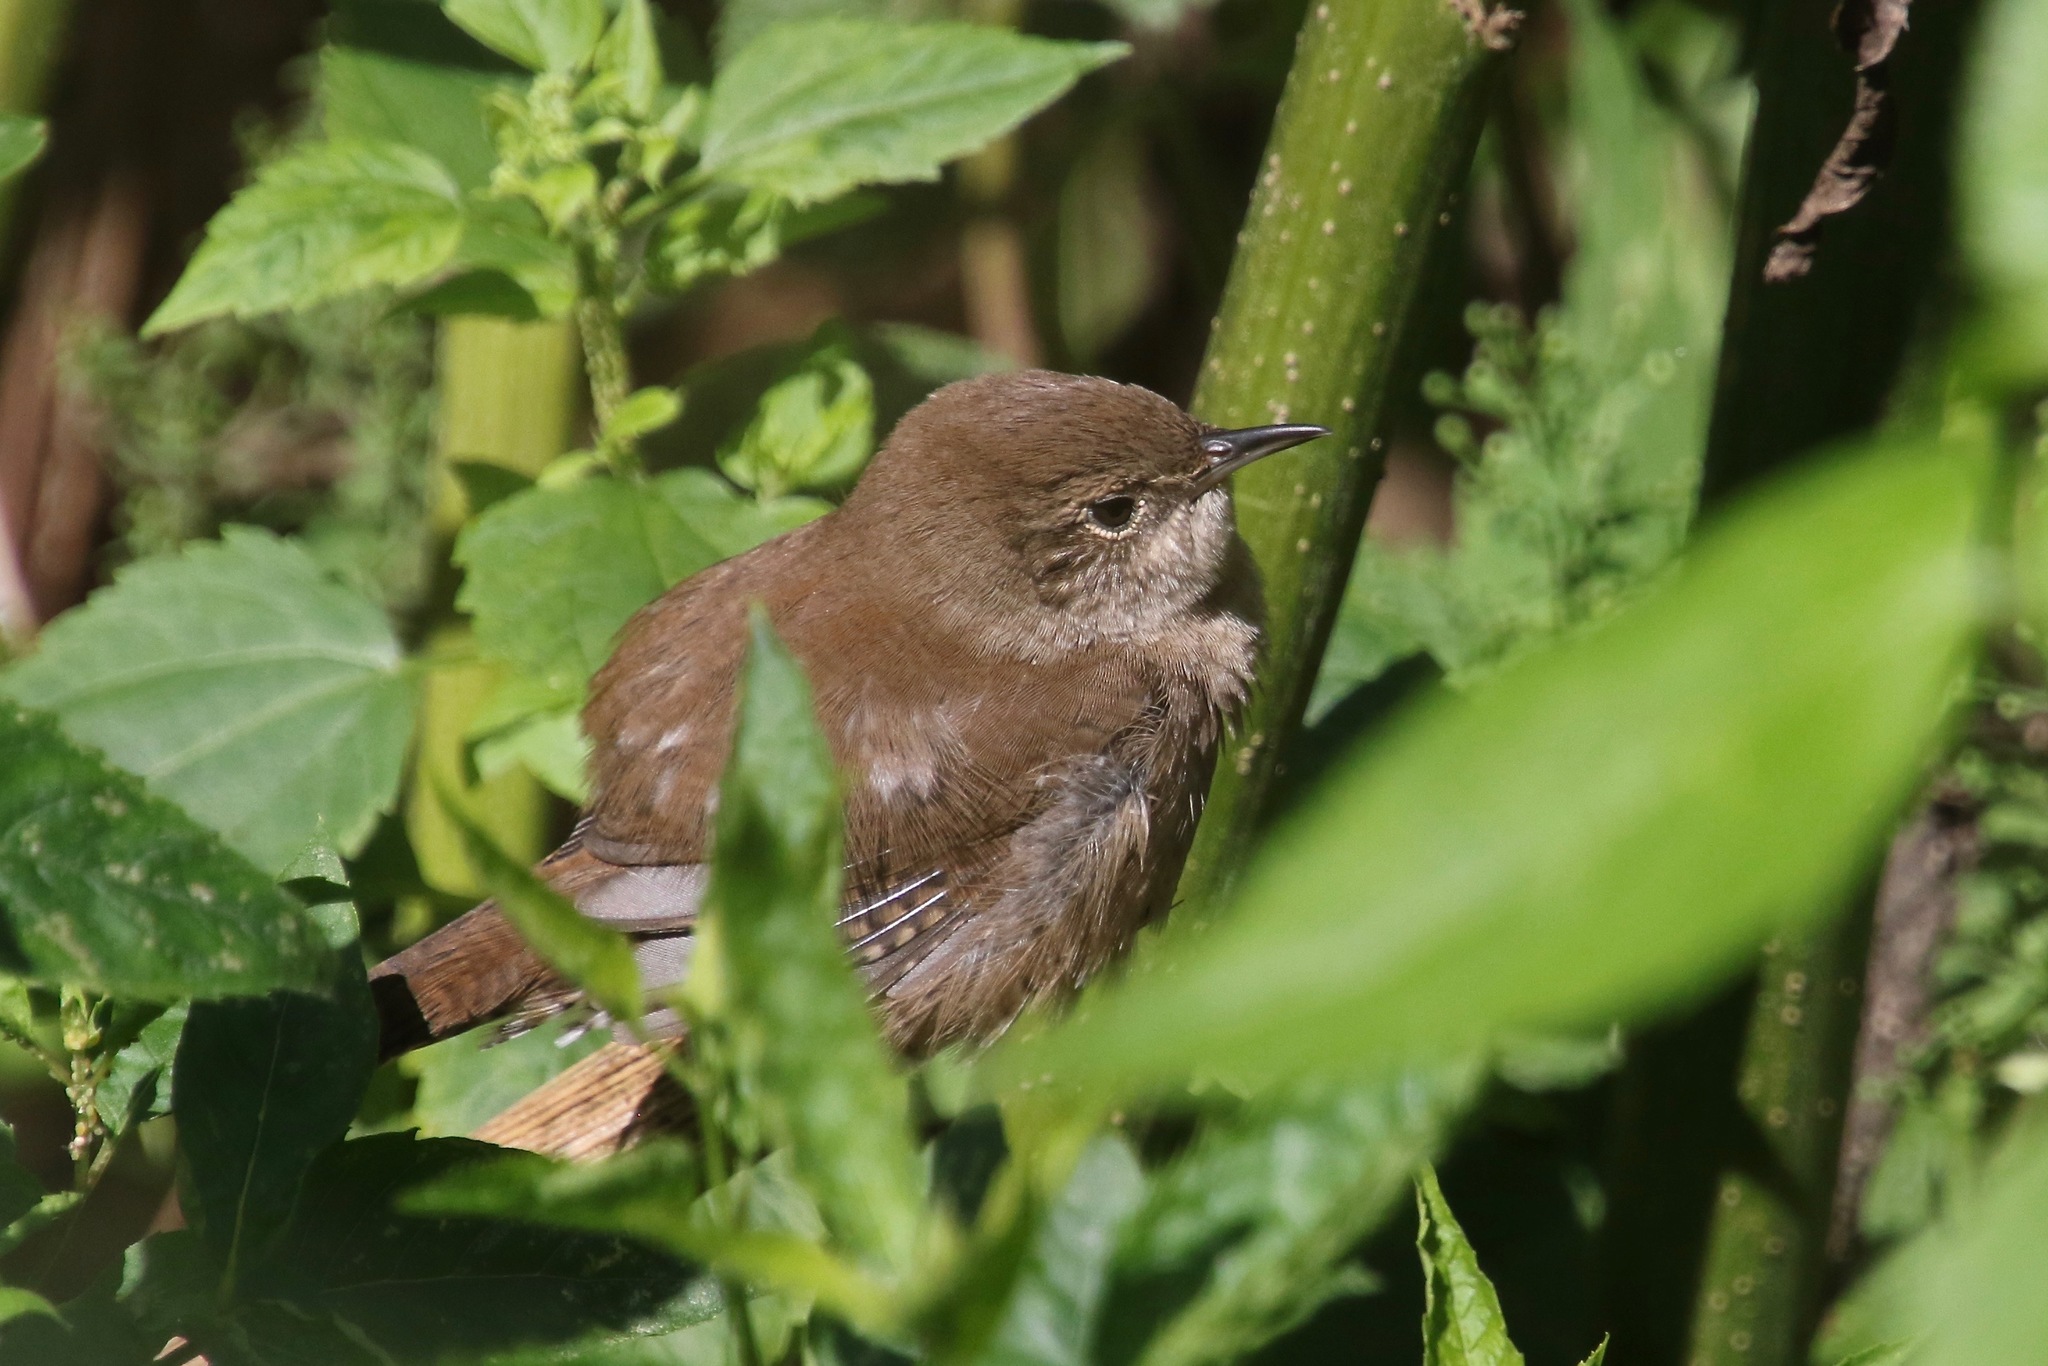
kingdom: Animalia
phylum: Chordata
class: Aves
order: Passeriformes
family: Troglodytidae
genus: Troglodytes
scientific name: Troglodytes aedon
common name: House wren
